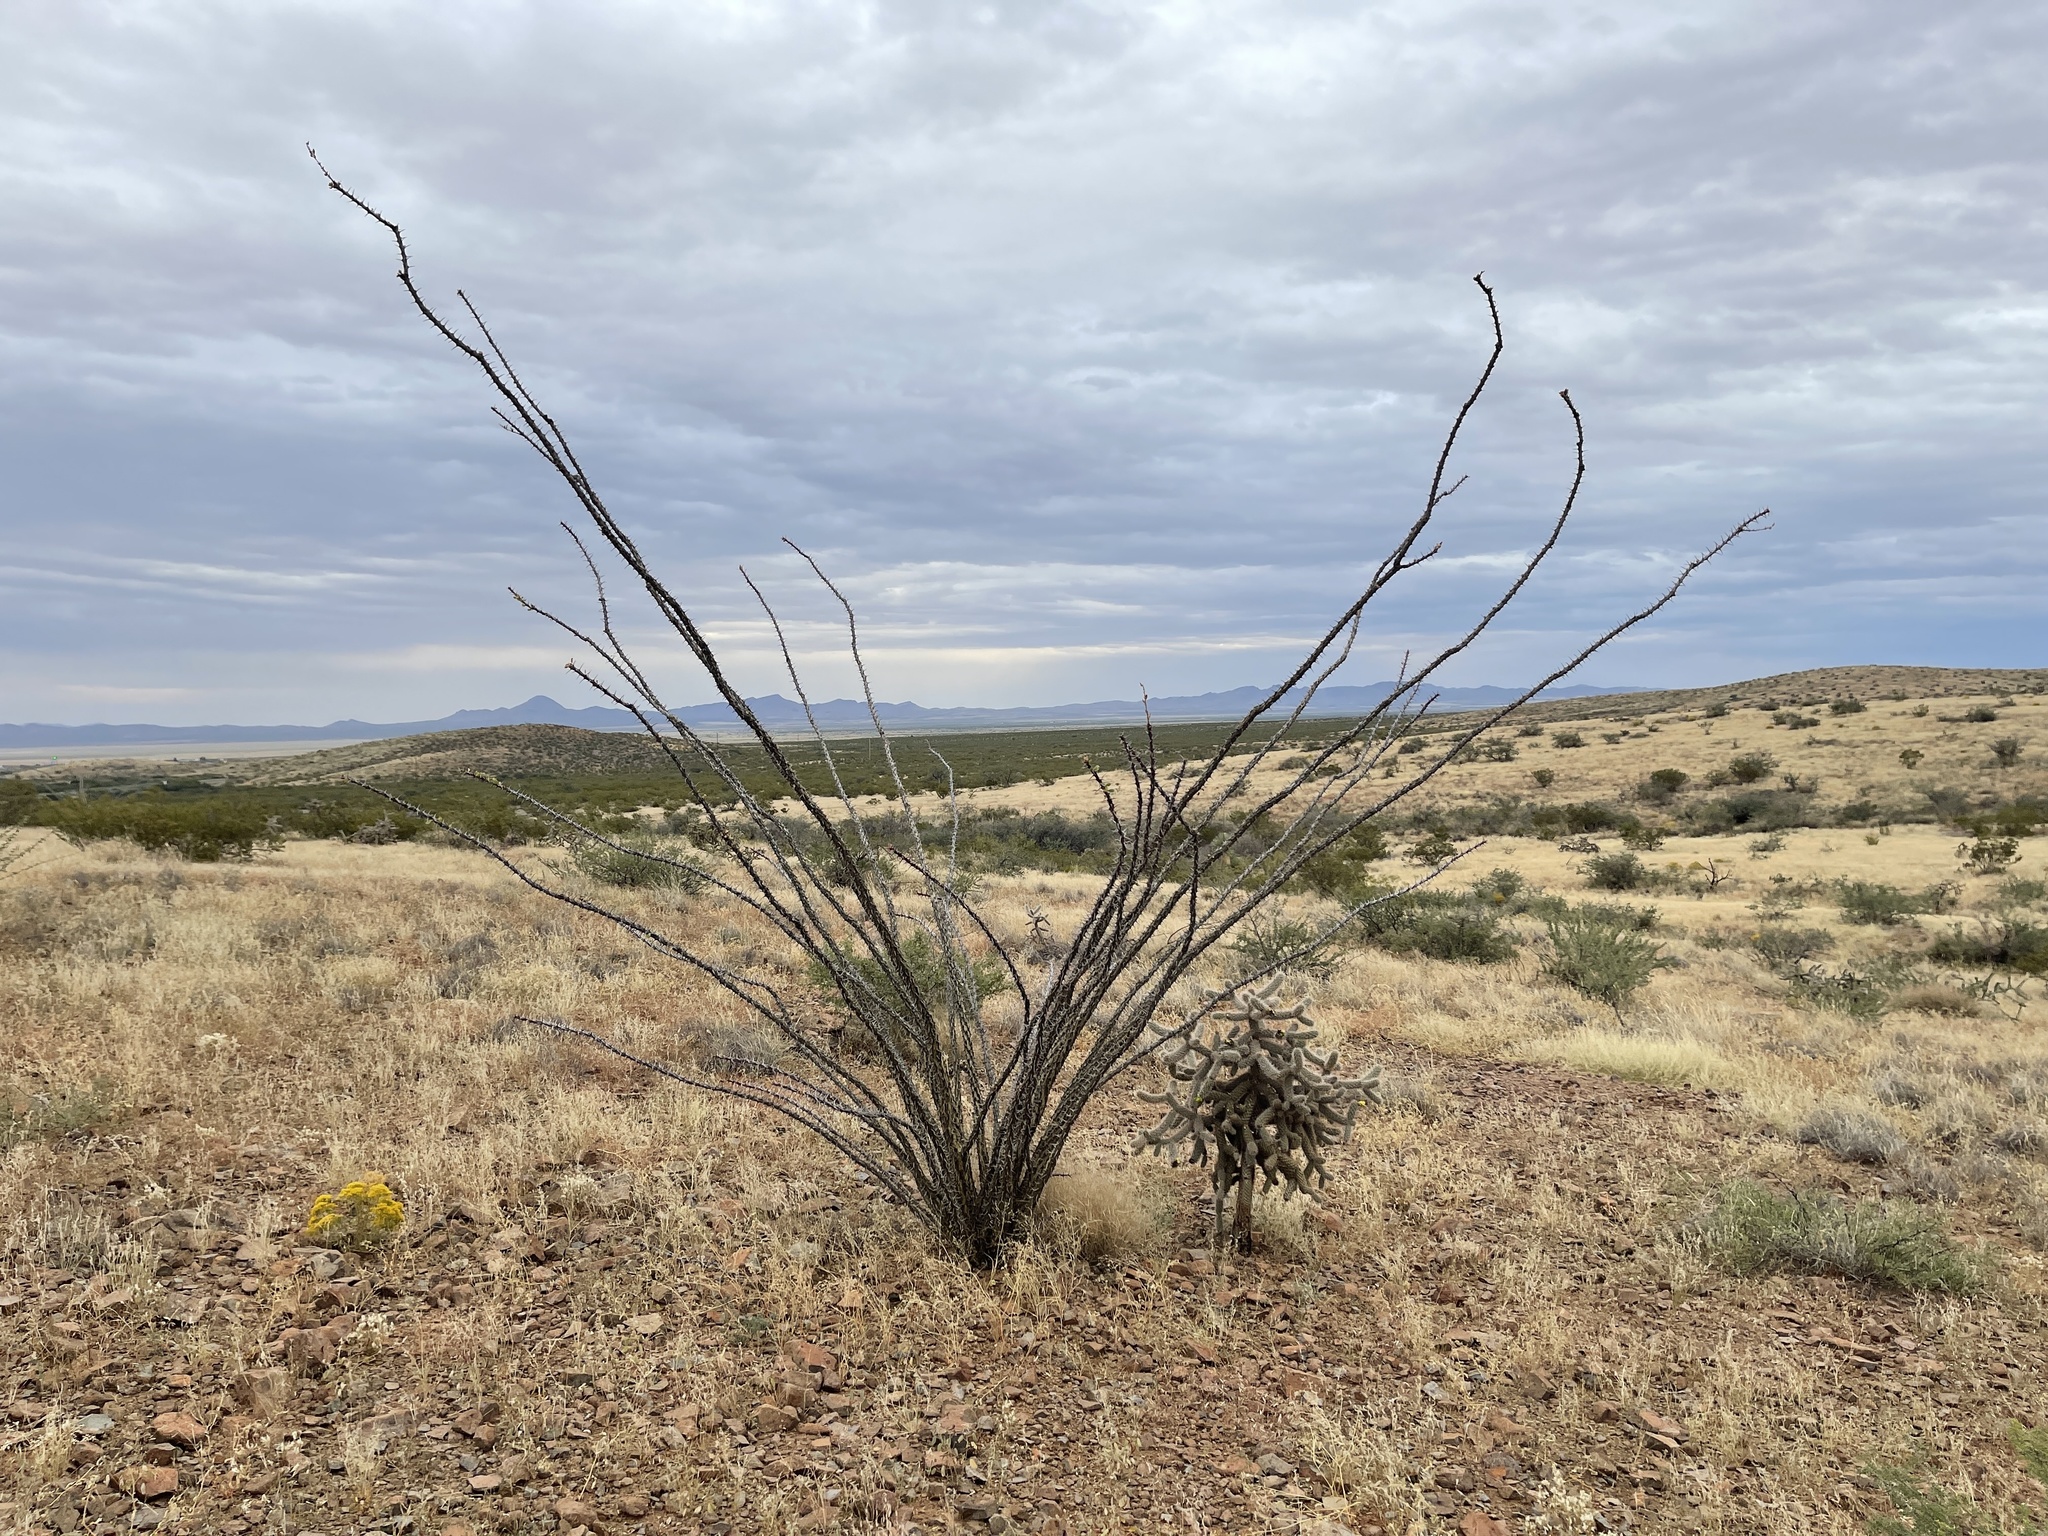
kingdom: Plantae
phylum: Tracheophyta
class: Magnoliopsida
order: Ericales
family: Fouquieriaceae
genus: Fouquieria
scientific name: Fouquieria splendens
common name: Vine-cactus
